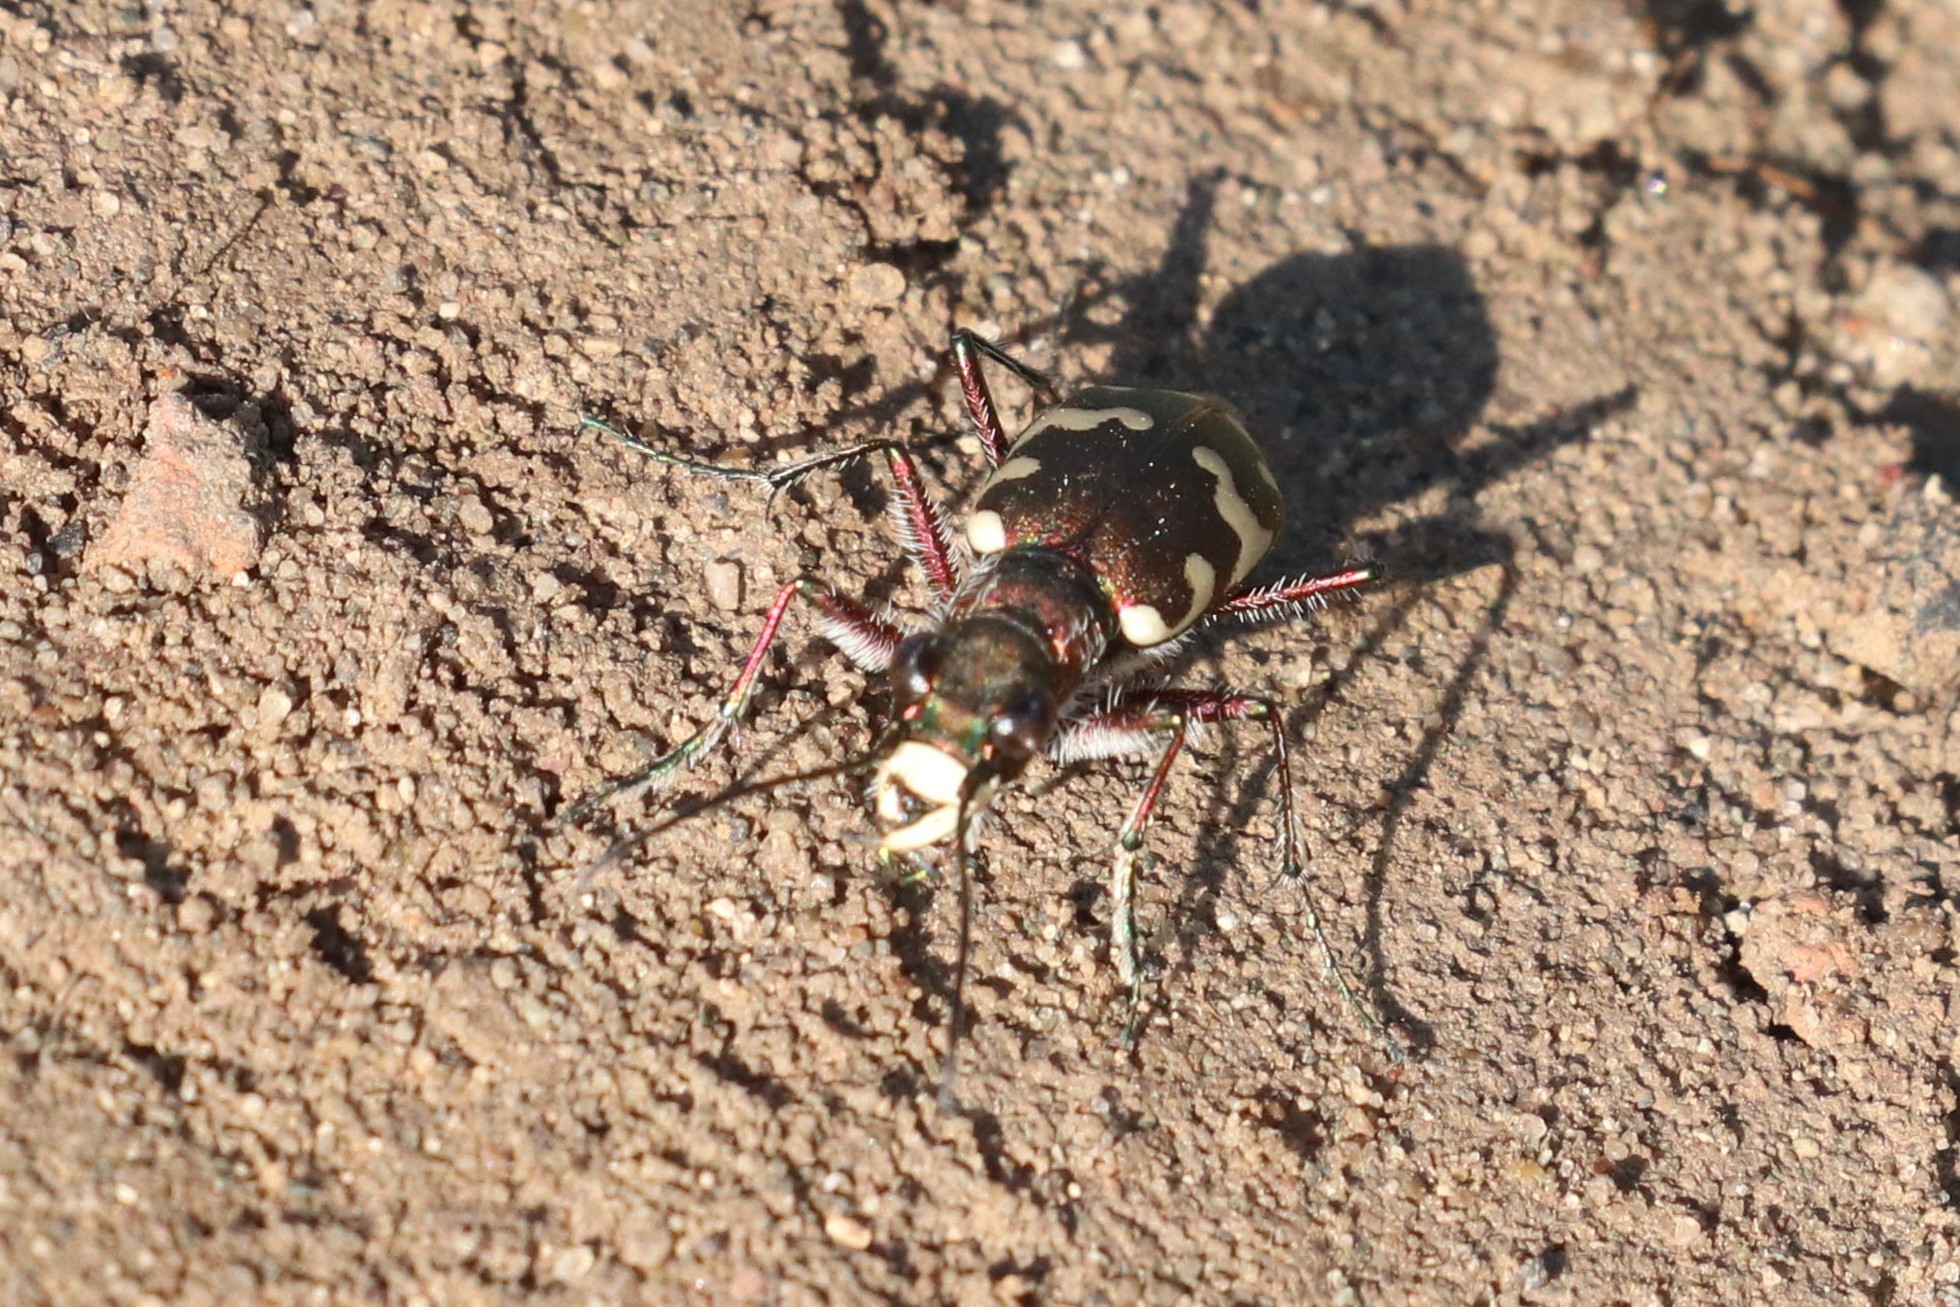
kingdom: Animalia
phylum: Arthropoda
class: Insecta
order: Coleoptera
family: Carabidae
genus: Cicindela
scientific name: Cicindela hybrida
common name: Northern dune tiger beetle
